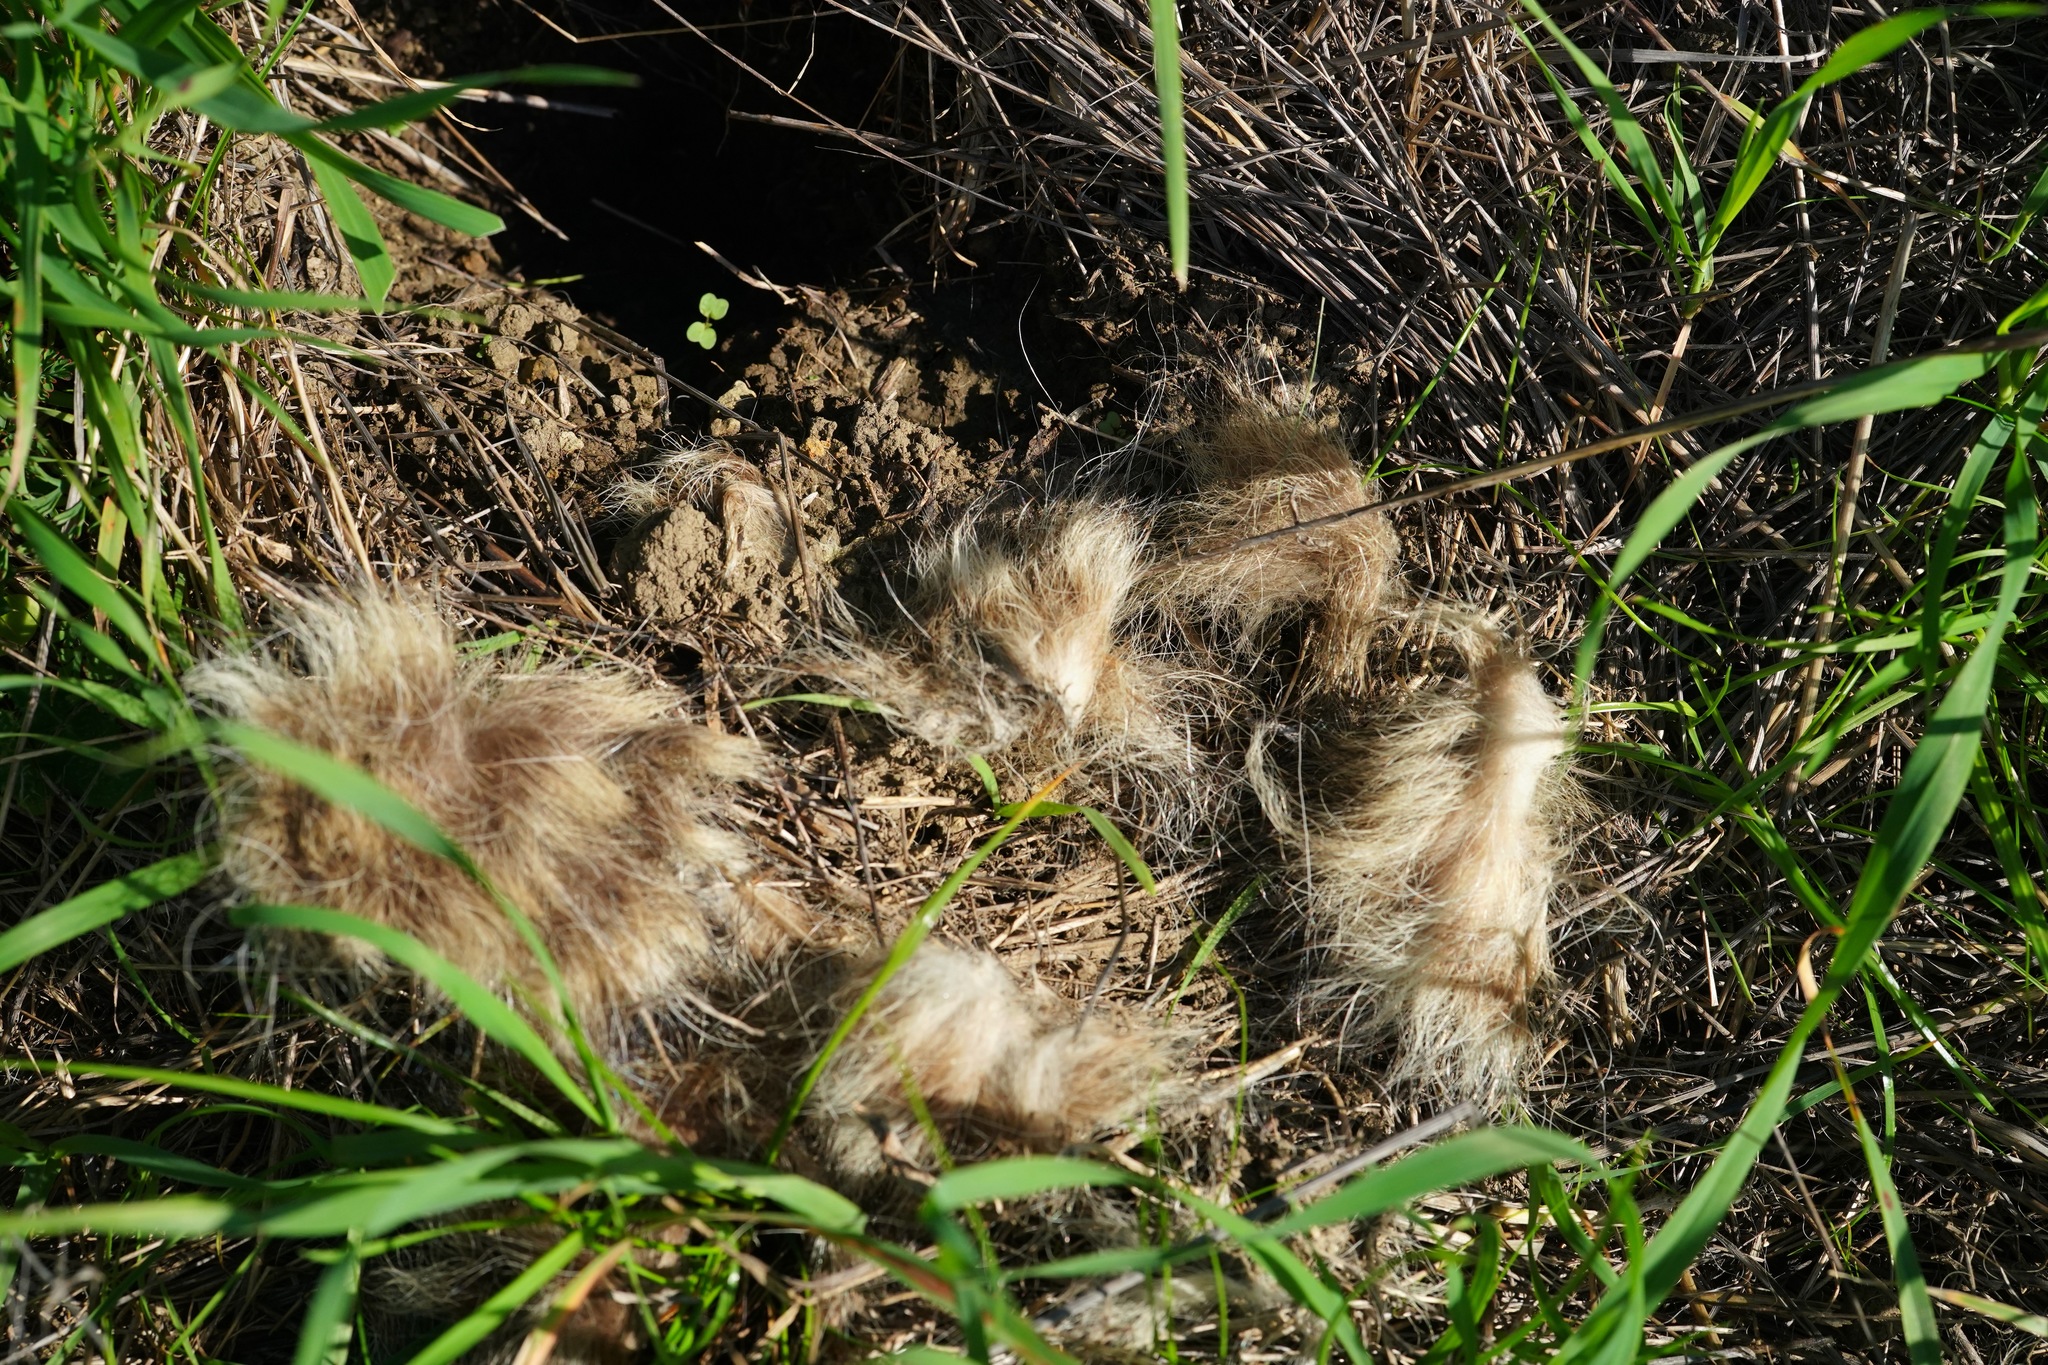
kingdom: Animalia
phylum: Chordata
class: Mammalia
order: Carnivora
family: Procyonidae
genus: Procyon
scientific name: Procyon lotor
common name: Raccoon
